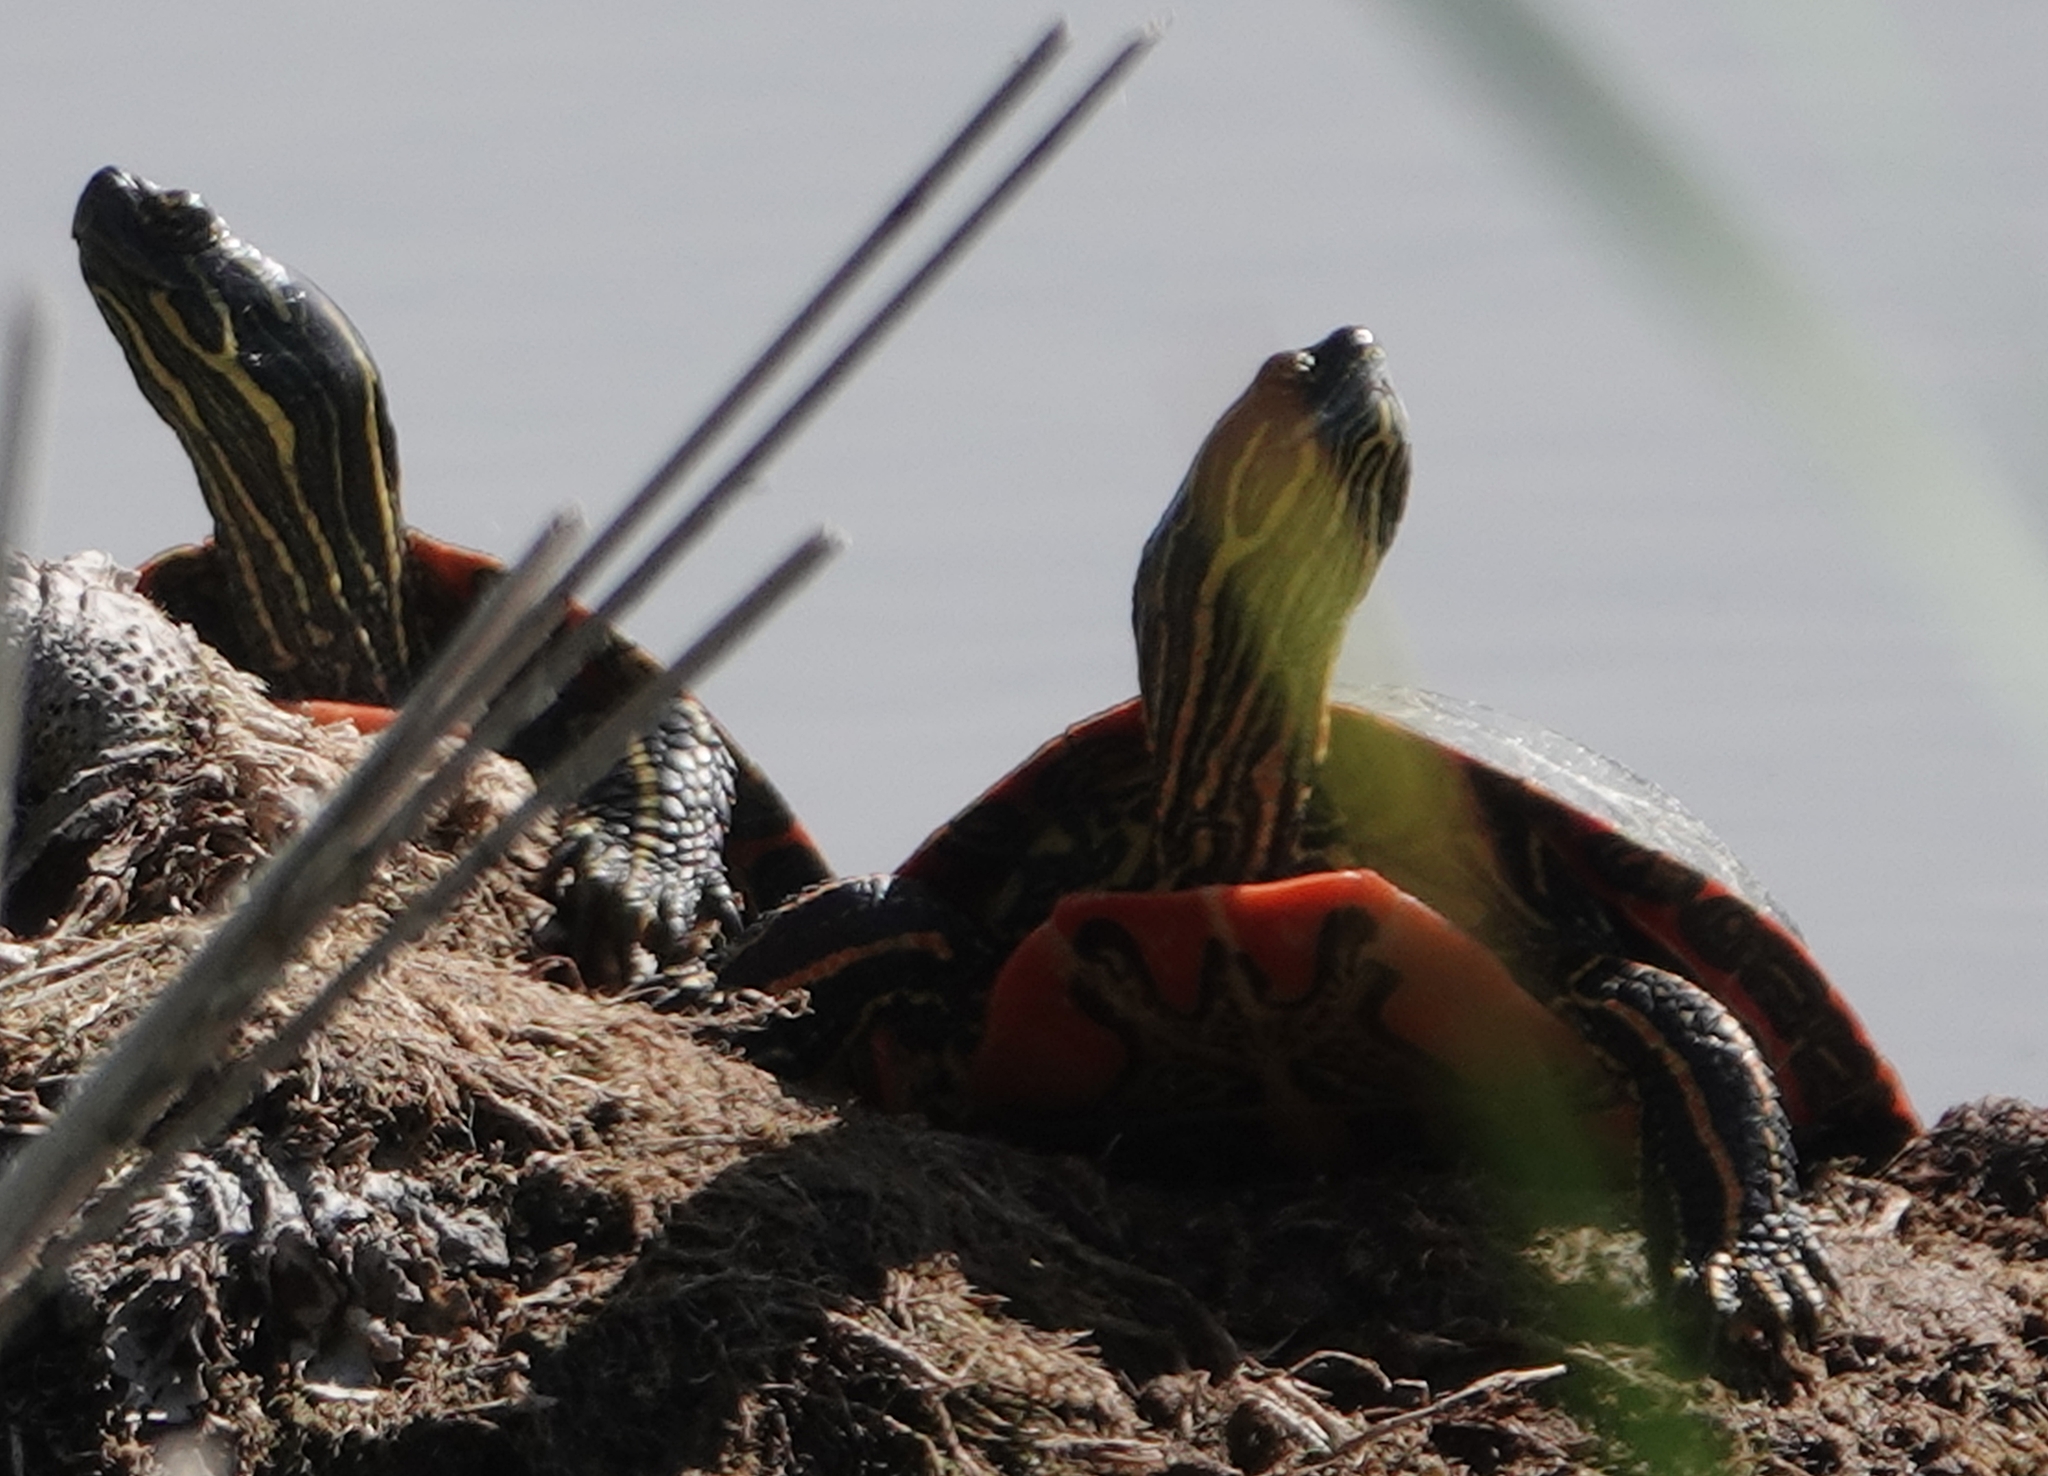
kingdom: Animalia
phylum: Chordata
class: Testudines
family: Emydidae
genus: Chrysemys
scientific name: Chrysemys picta
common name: Painted turtle
